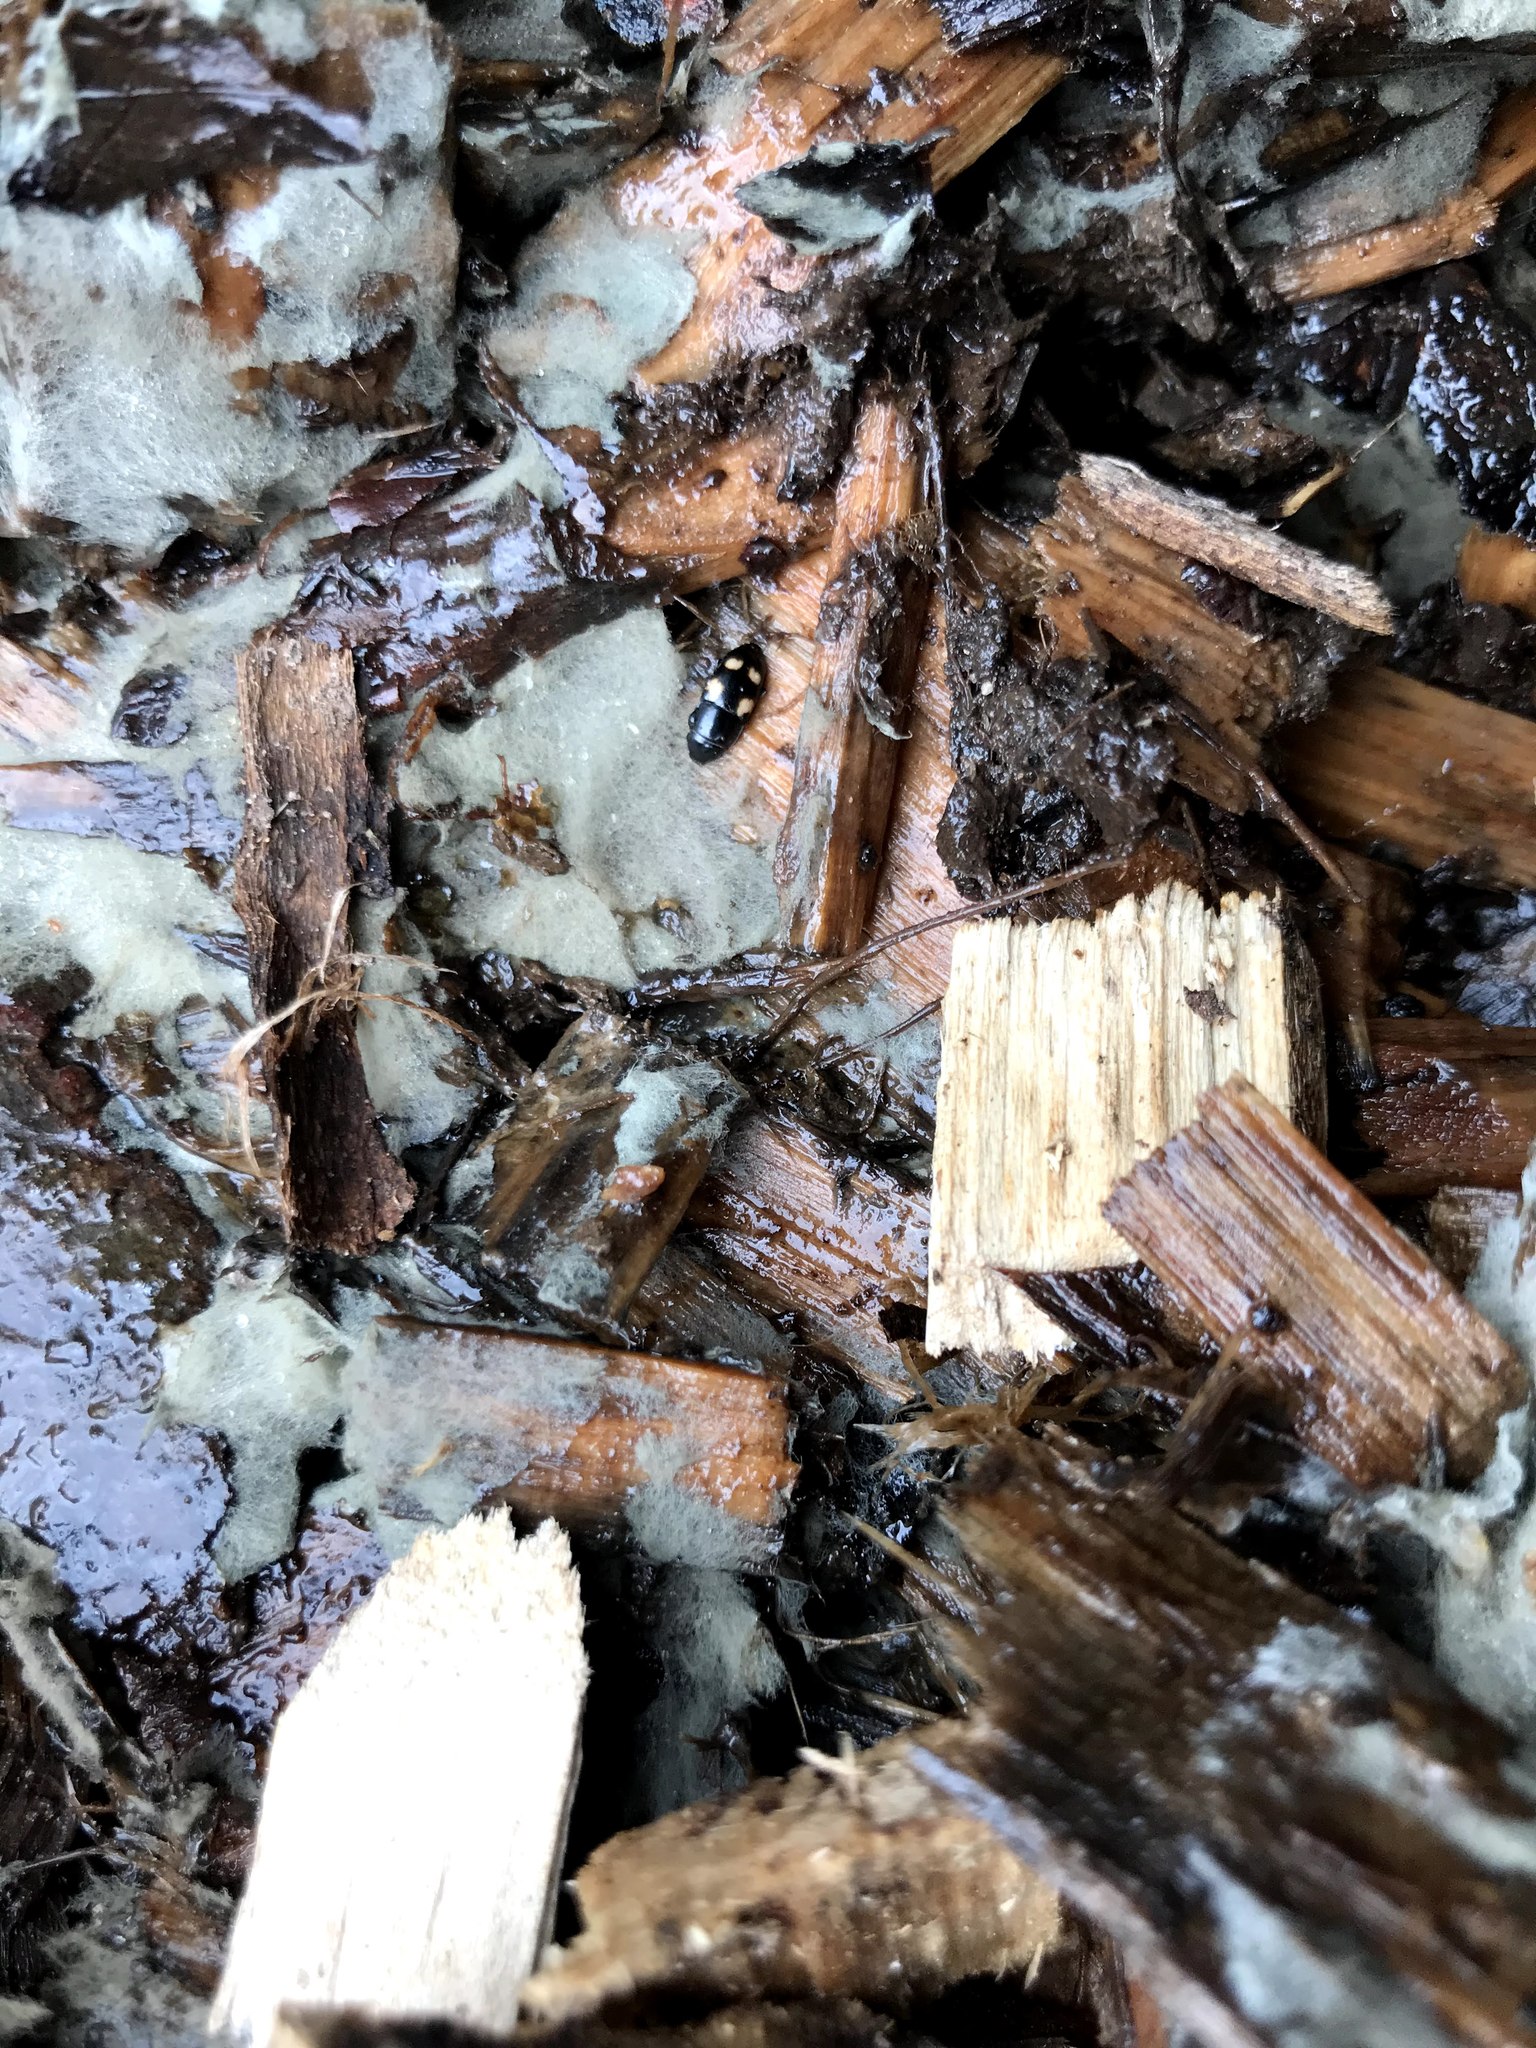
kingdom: Animalia
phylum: Arthropoda
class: Insecta
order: Coleoptera
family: Nitidulidae
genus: Glischrochilus
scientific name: Glischrochilus quadrisignatus
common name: Picnic beetle
